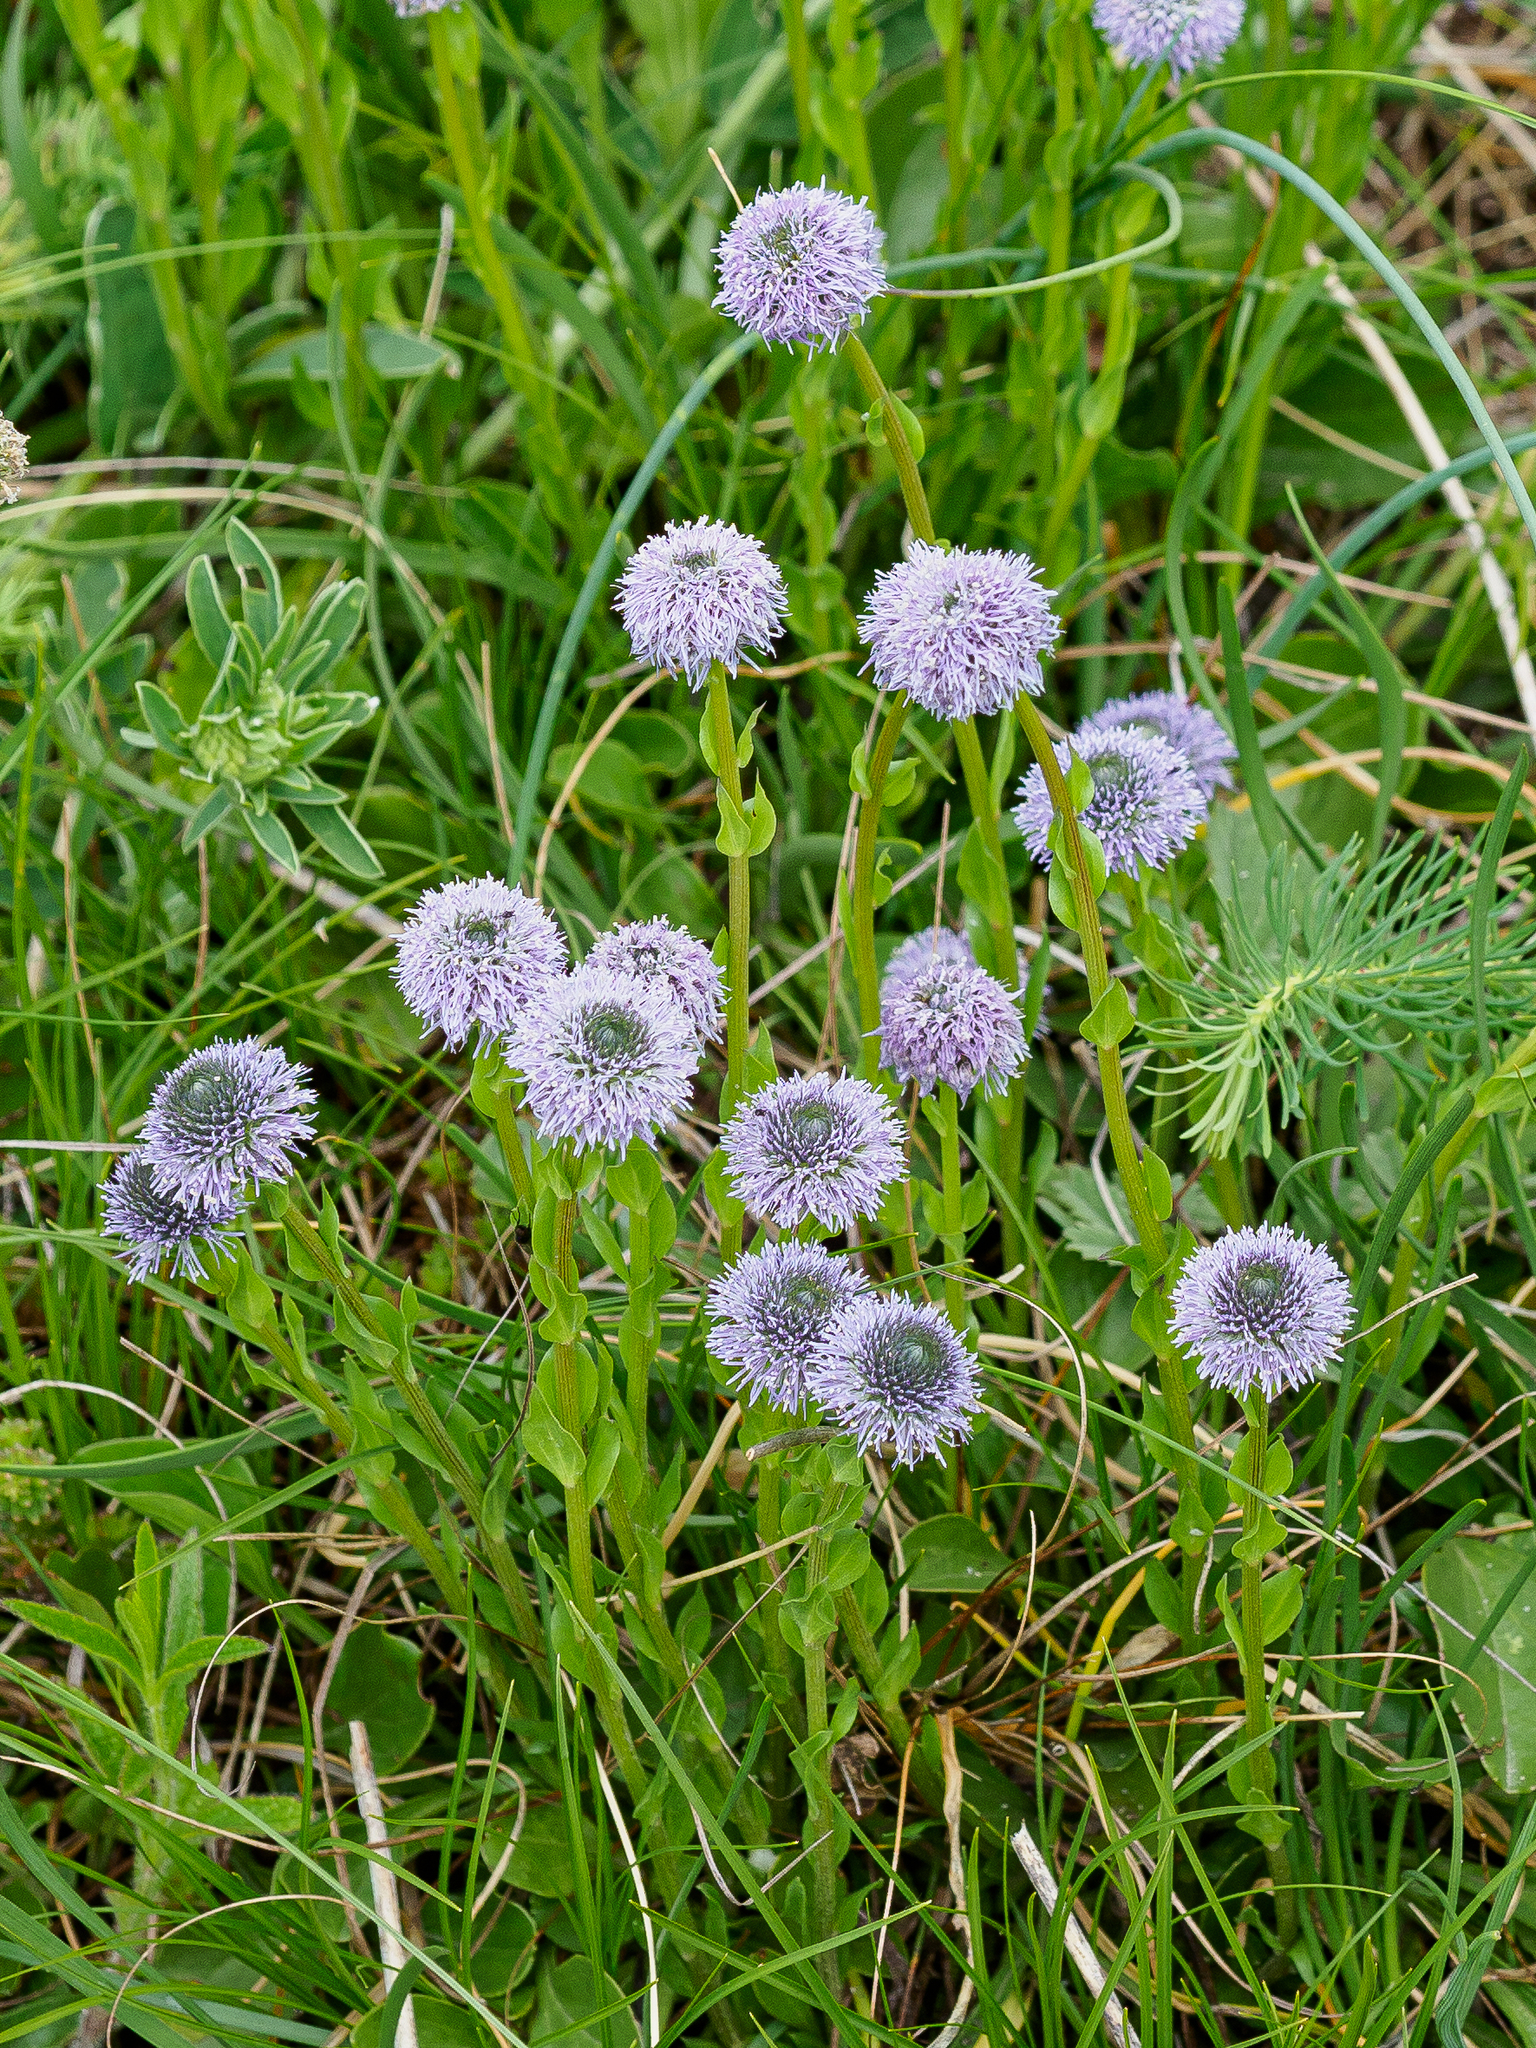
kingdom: Plantae
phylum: Tracheophyta
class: Magnoliopsida
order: Lamiales
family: Plantaginaceae
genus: Globularia
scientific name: Globularia bisnagarica
